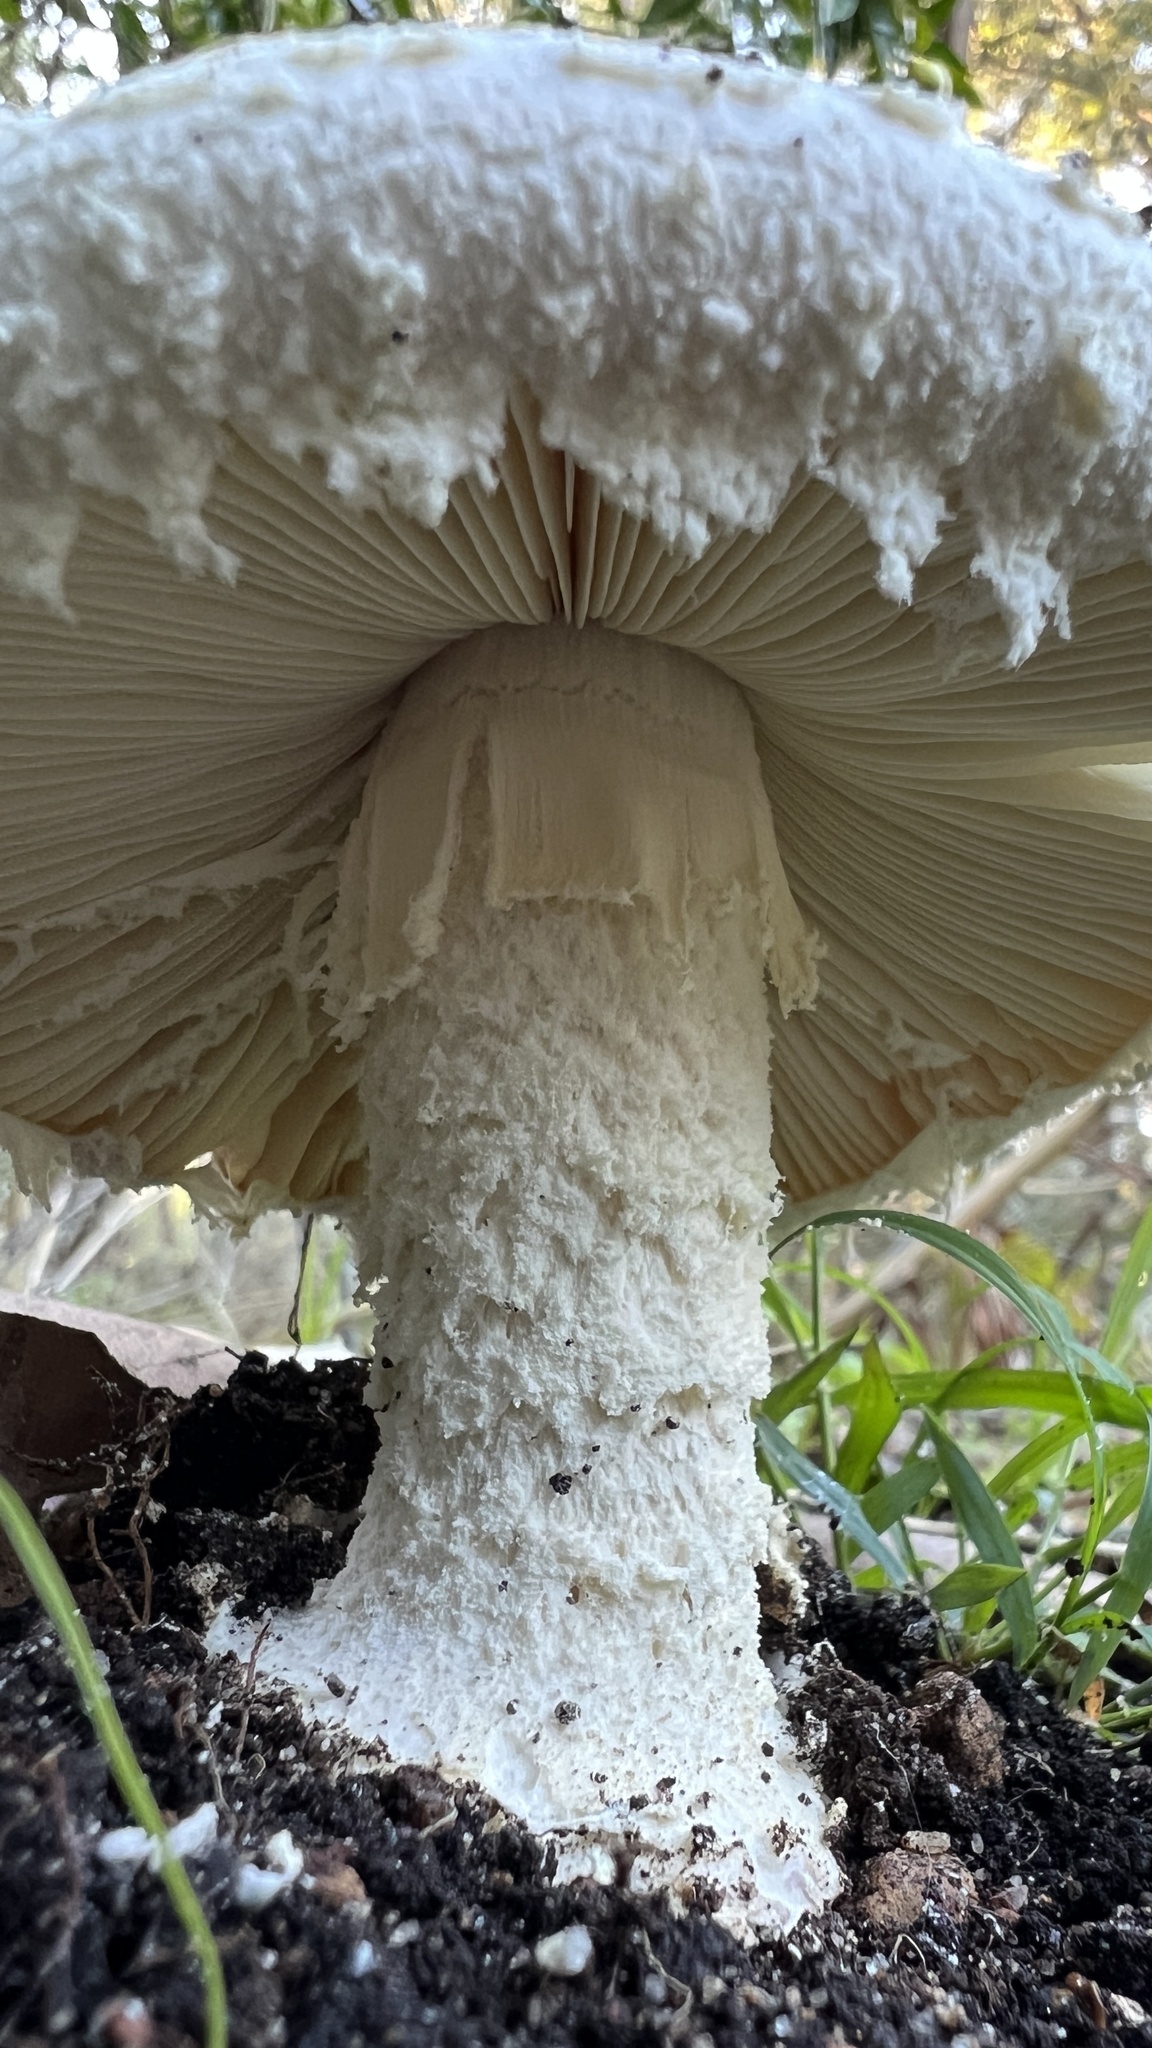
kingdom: Fungi
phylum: Basidiomycota
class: Agaricomycetes
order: Agaricales
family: Amanitaceae
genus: Amanita
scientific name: Amanita farinacea
